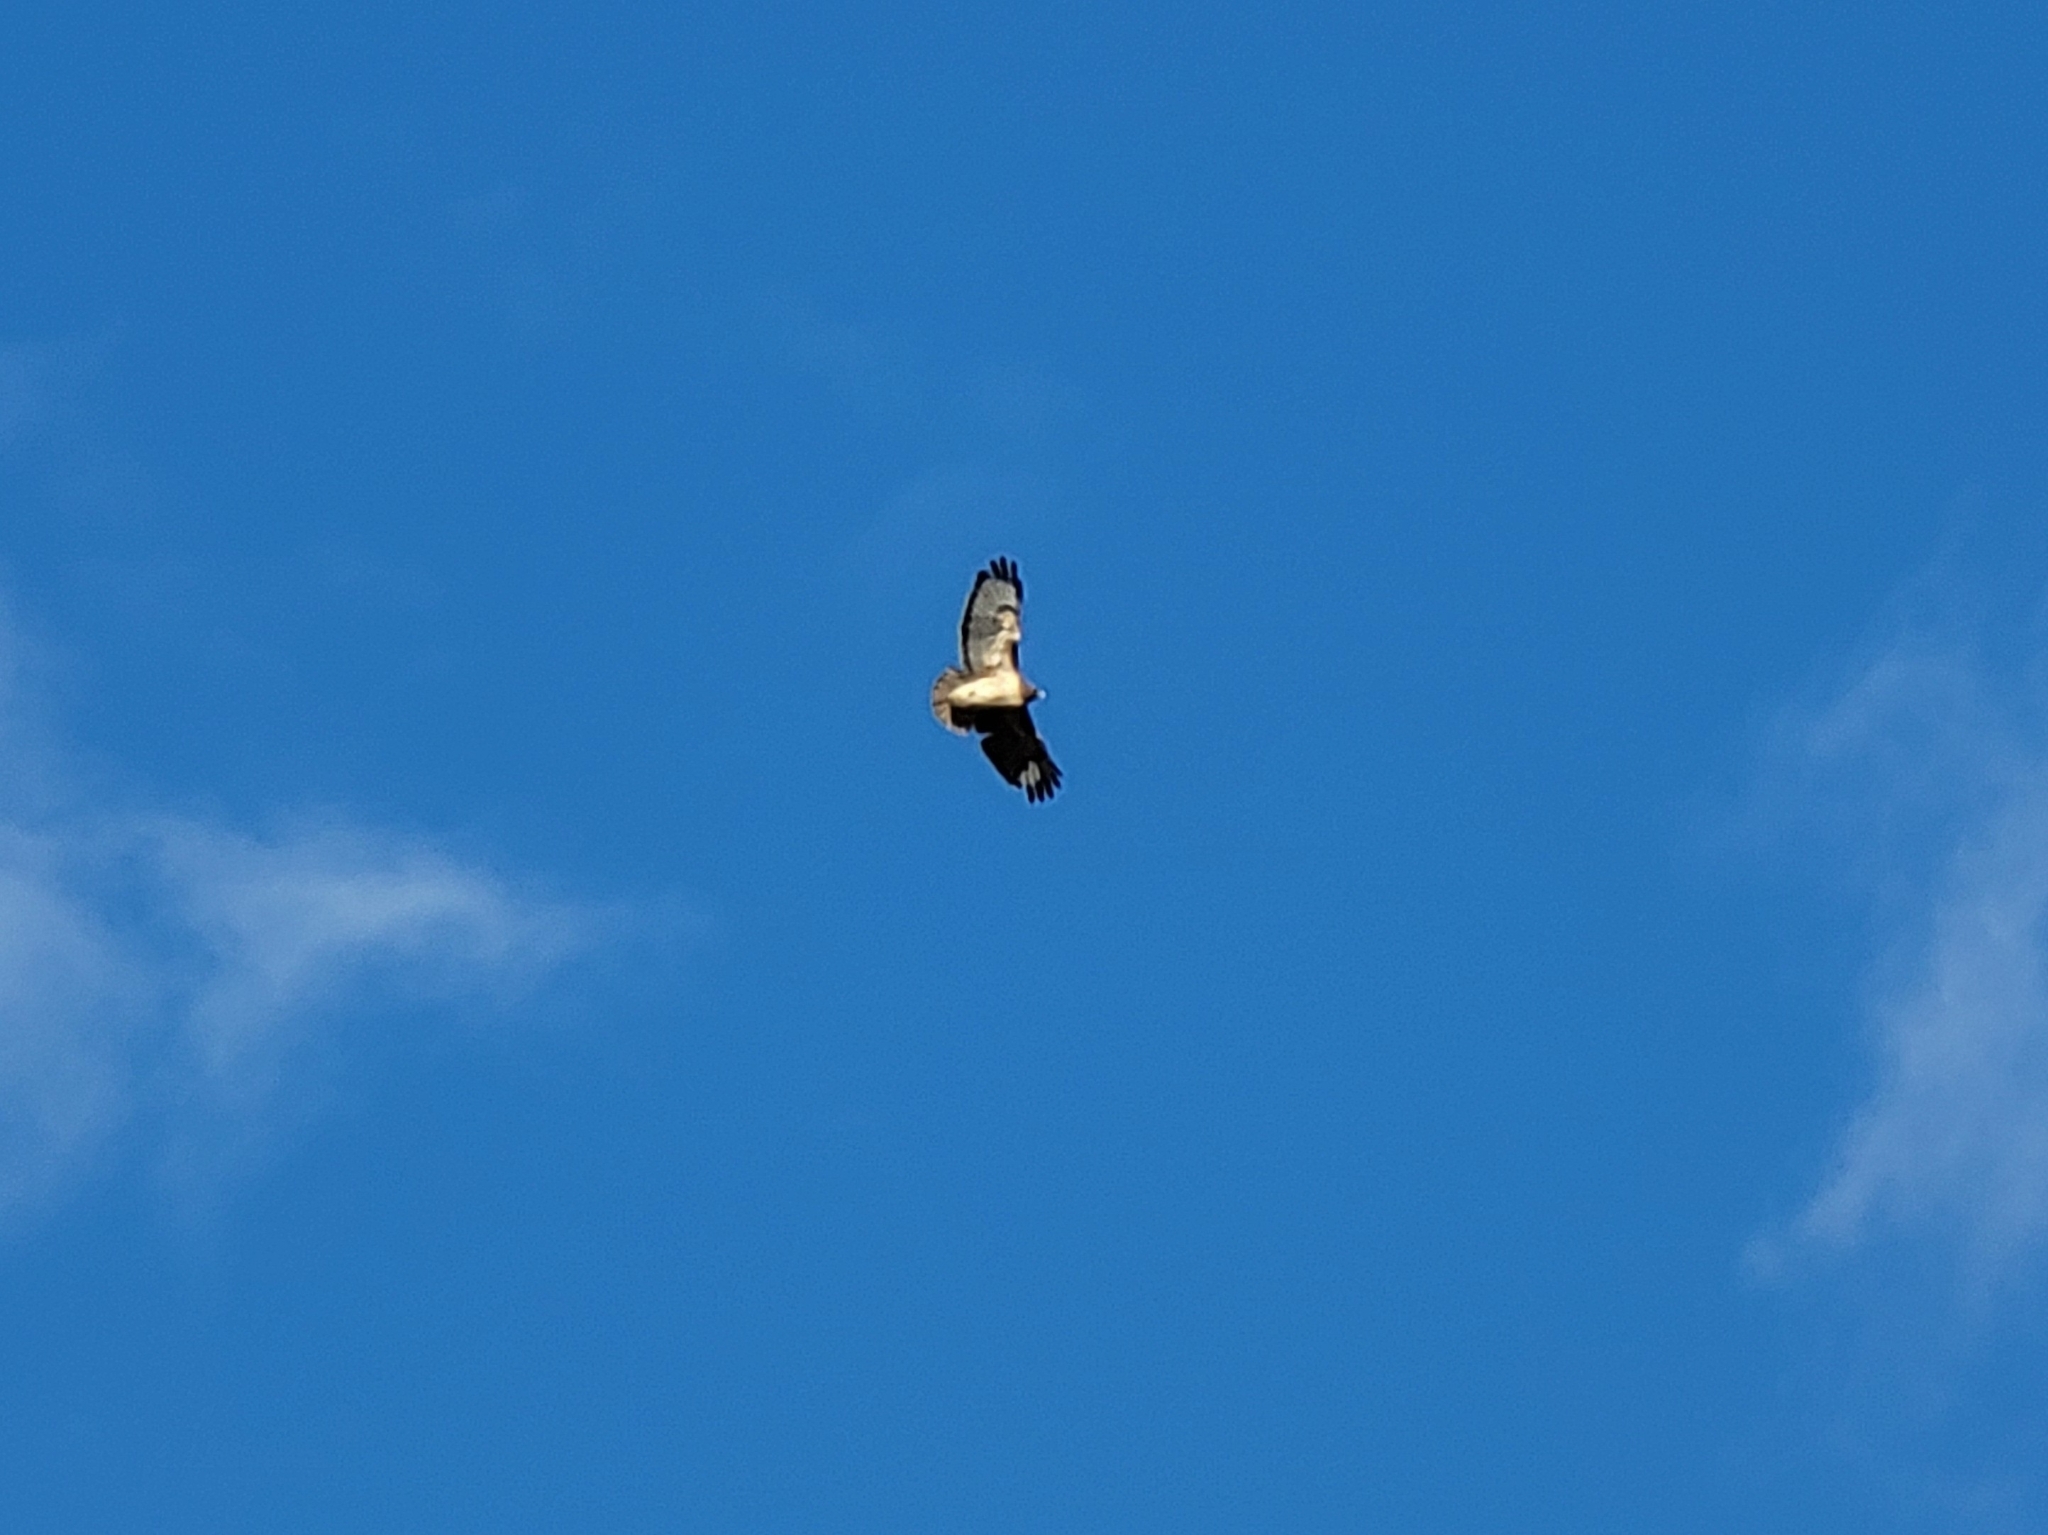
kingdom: Animalia
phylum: Chordata
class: Aves
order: Accipitriformes
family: Accipitridae
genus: Buteo
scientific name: Buteo jamaicensis
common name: Red-tailed hawk
